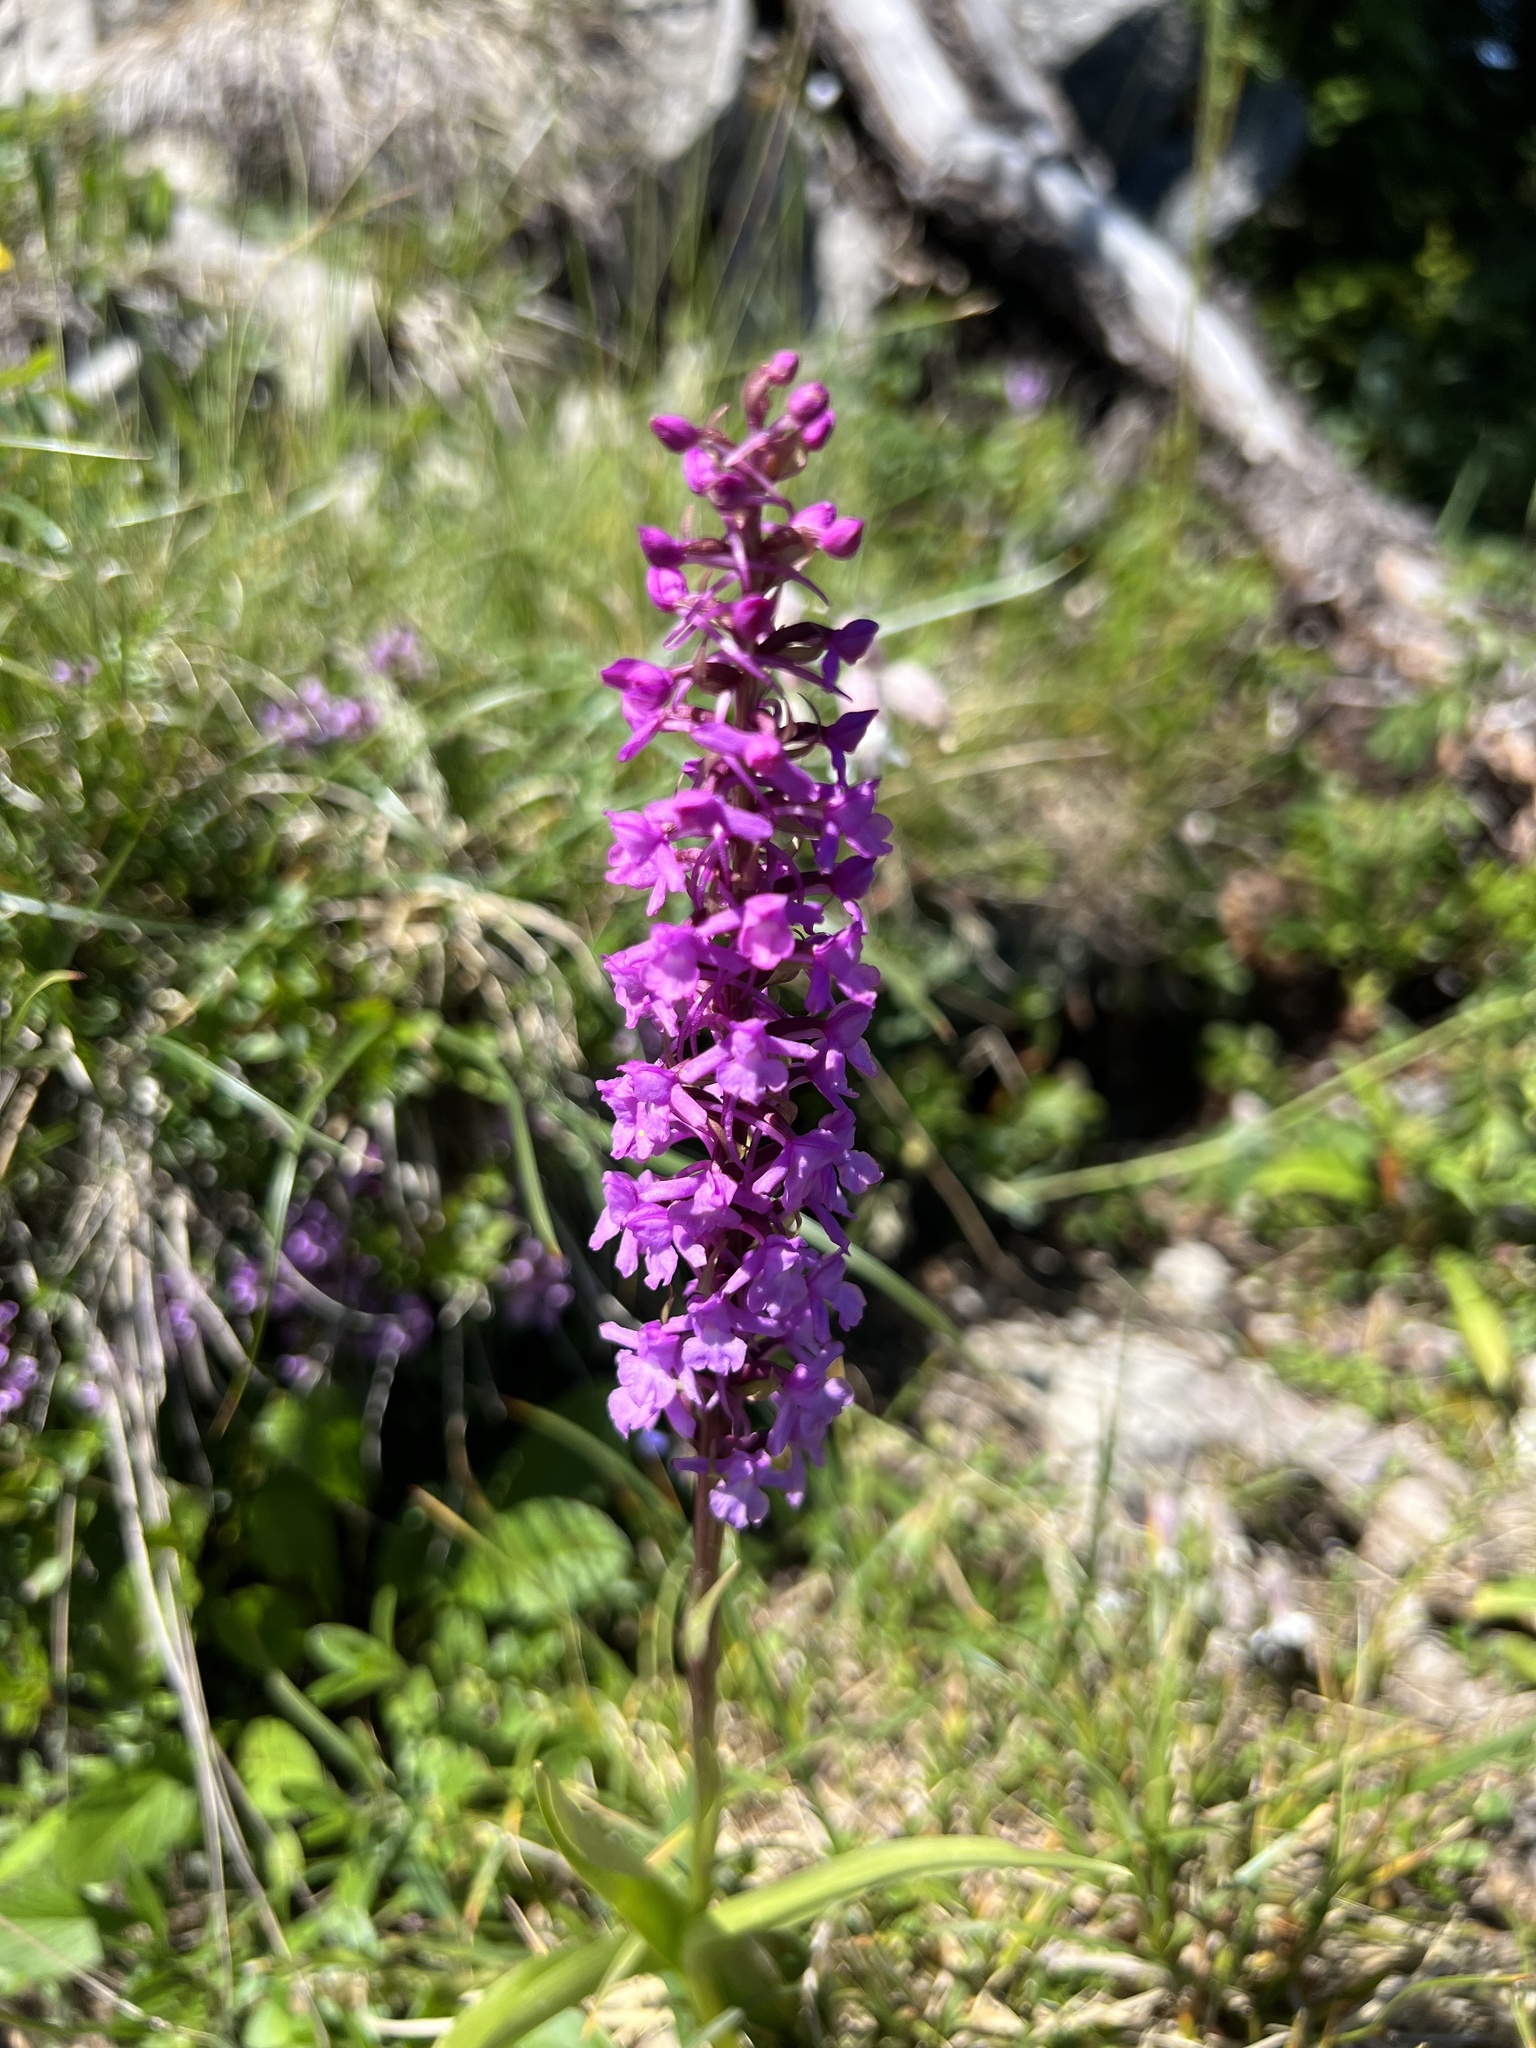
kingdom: Plantae
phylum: Tracheophyta
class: Liliopsida
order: Asparagales
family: Orchidaceae
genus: Gymnadenia
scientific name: Gymnadenia conopsea
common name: Fragrant orchid
